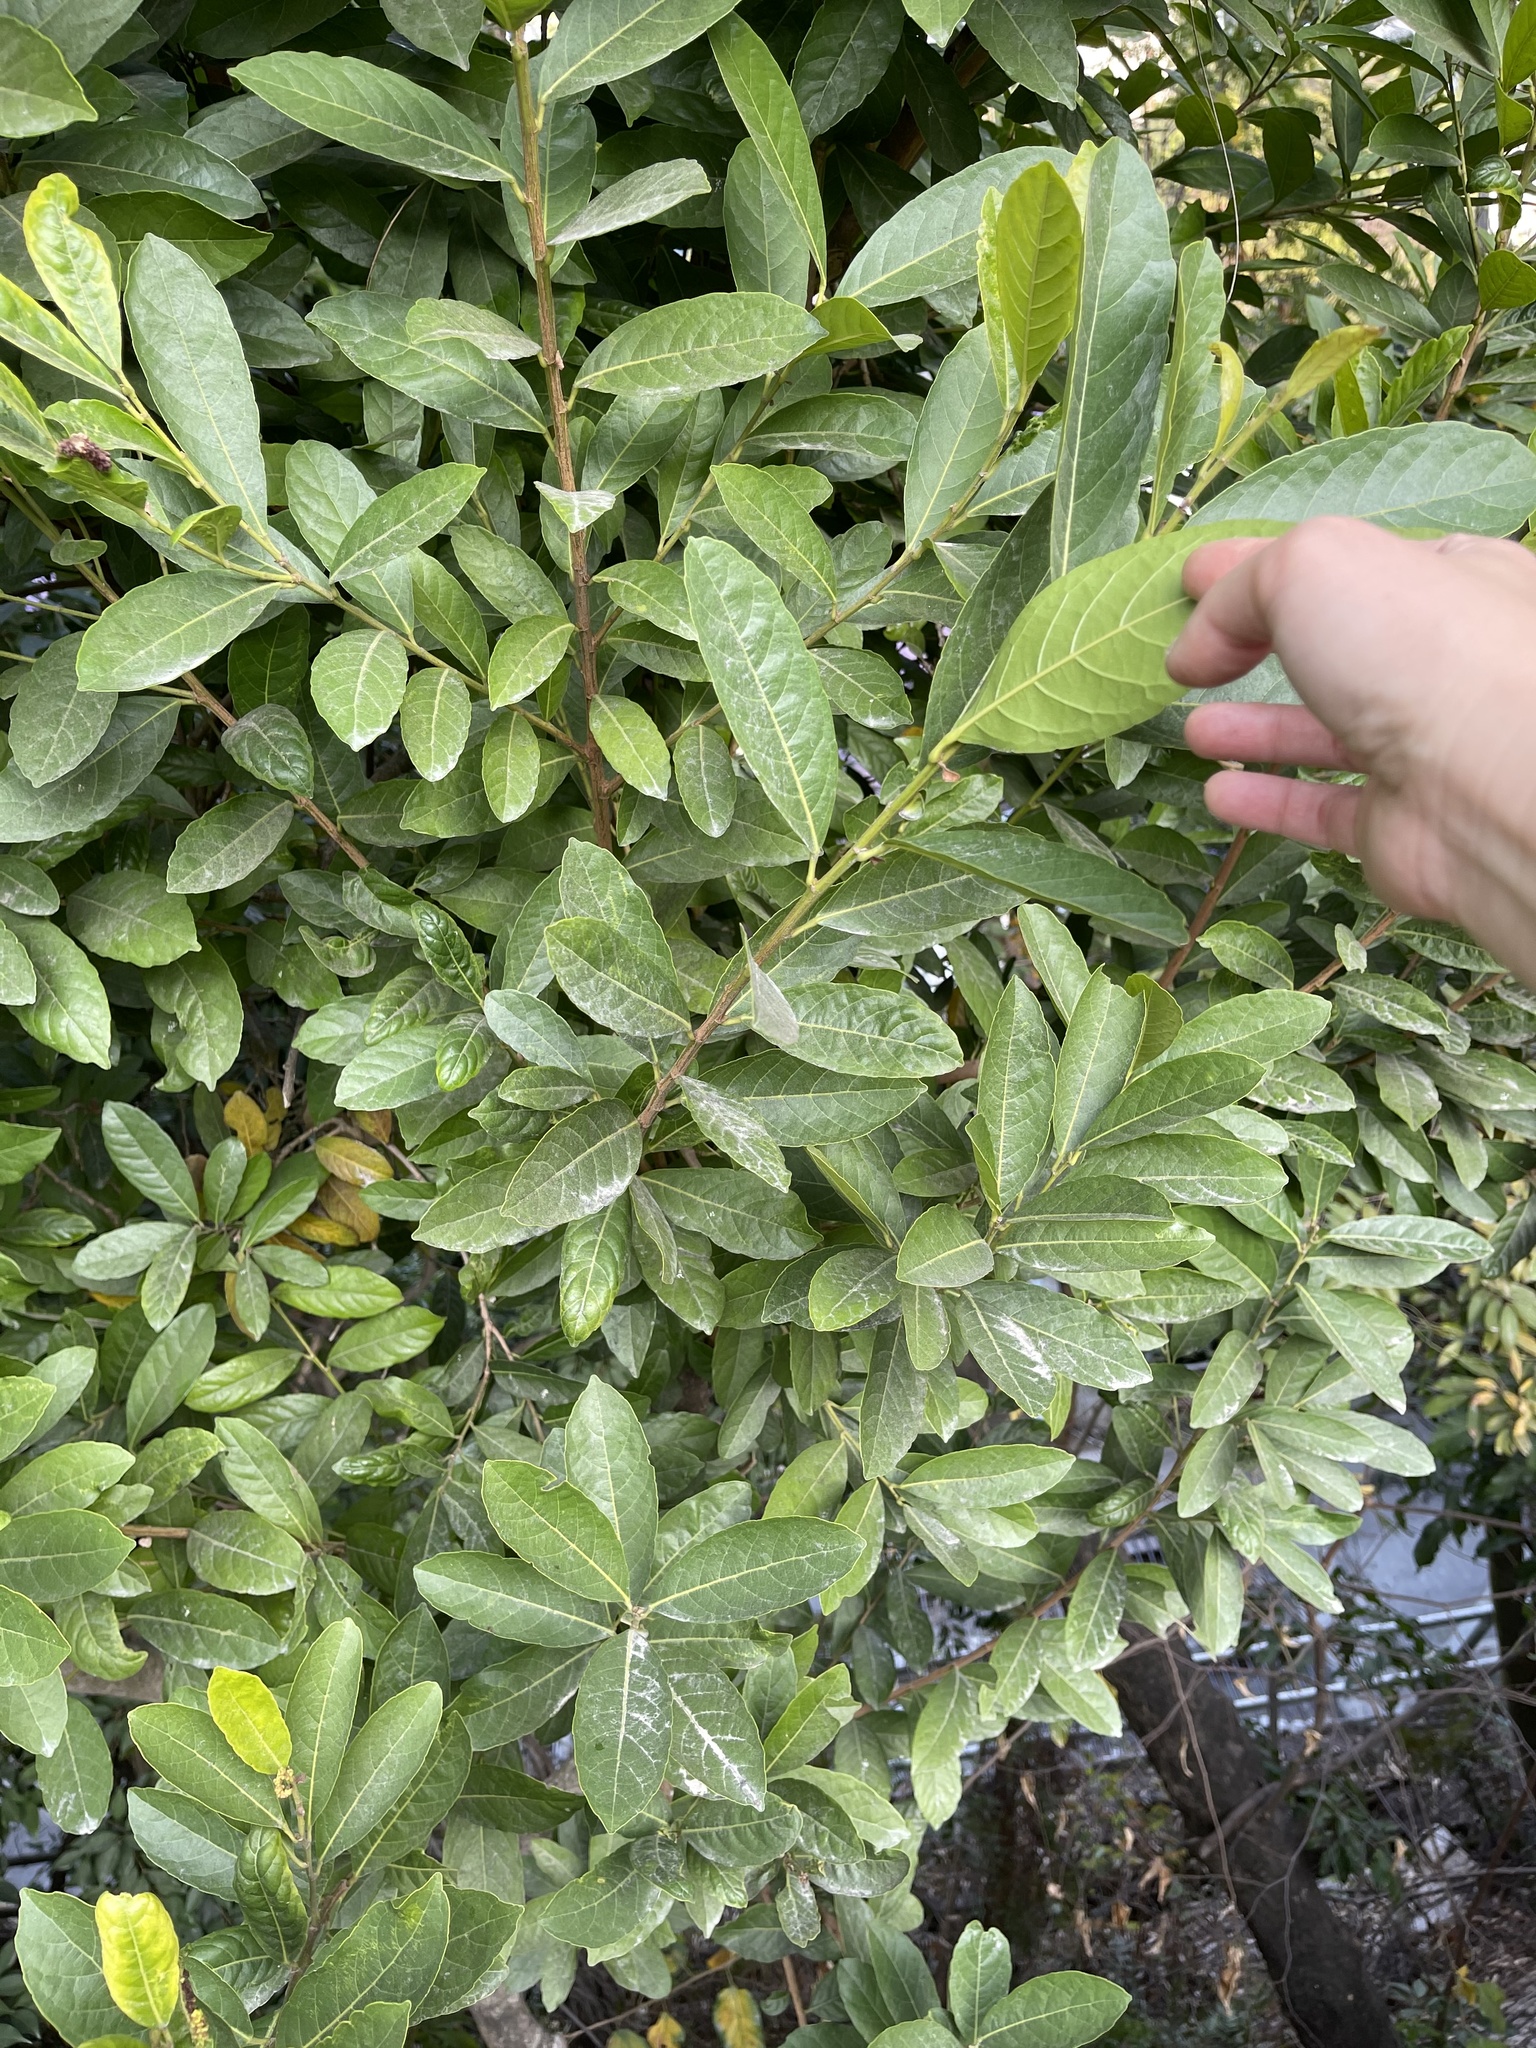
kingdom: Plantae
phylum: Tracheophyta
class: Magnoliopsida
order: Malpighiales
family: Phyllanthaceae
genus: Aporosa
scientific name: Aporosa octandra
